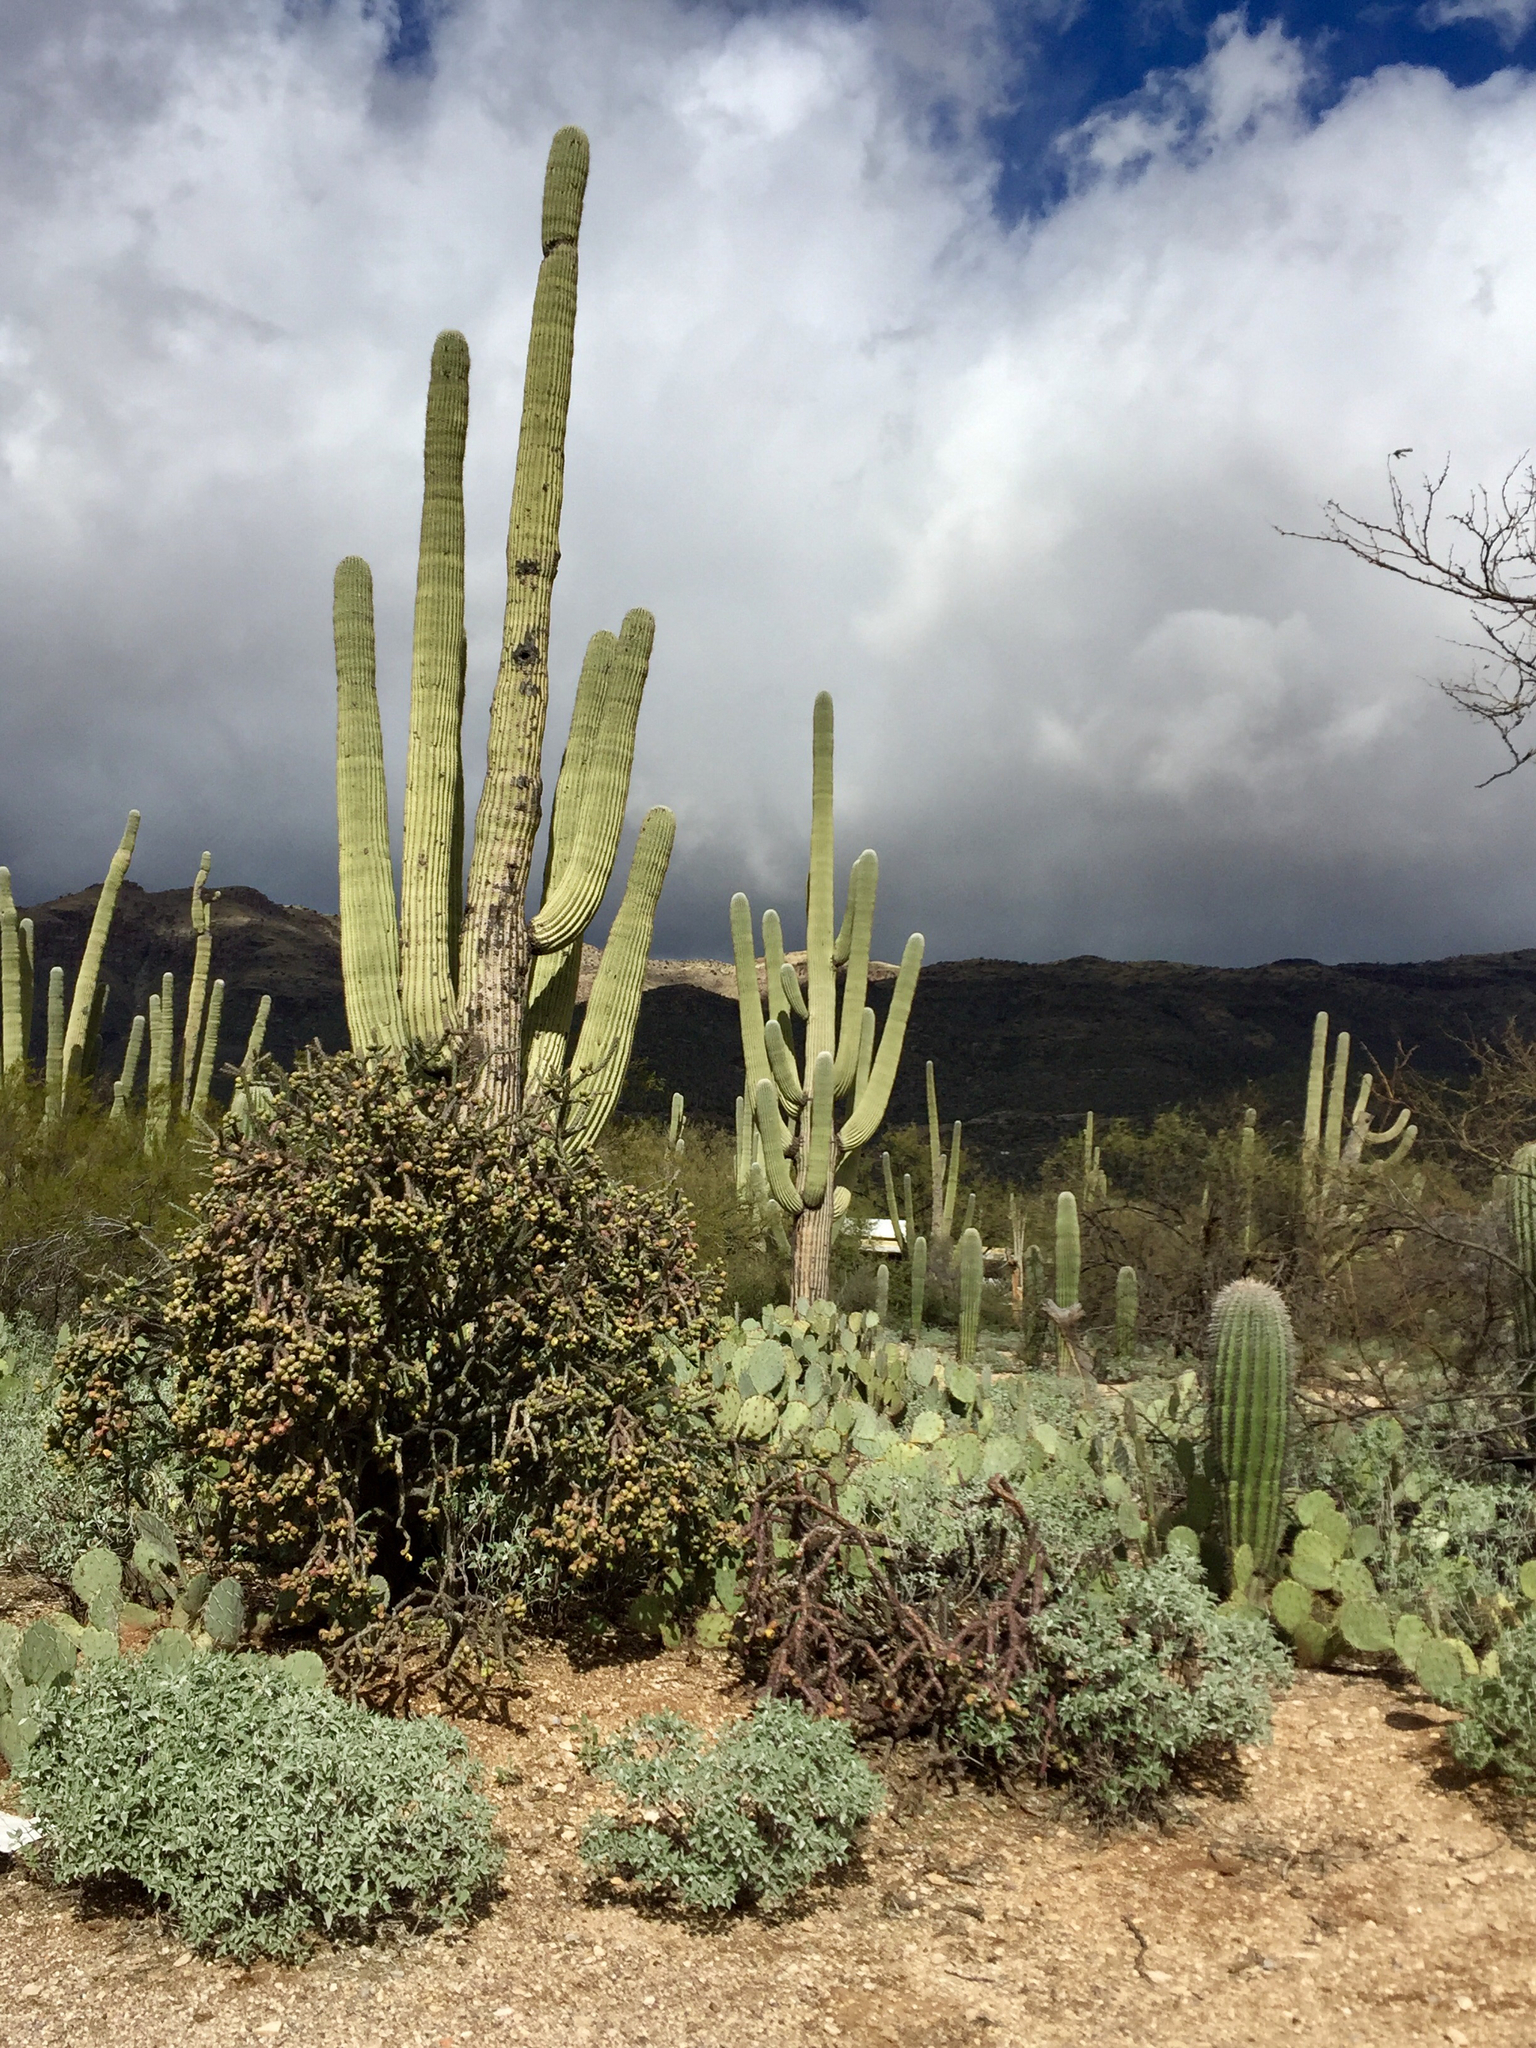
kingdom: Plantae
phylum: Tracheophyta
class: Magnoliopsida
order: Caryophyllales
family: Cactaceae
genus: Carnegiea
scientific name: Carnegiea gigantea
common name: Saguaro
